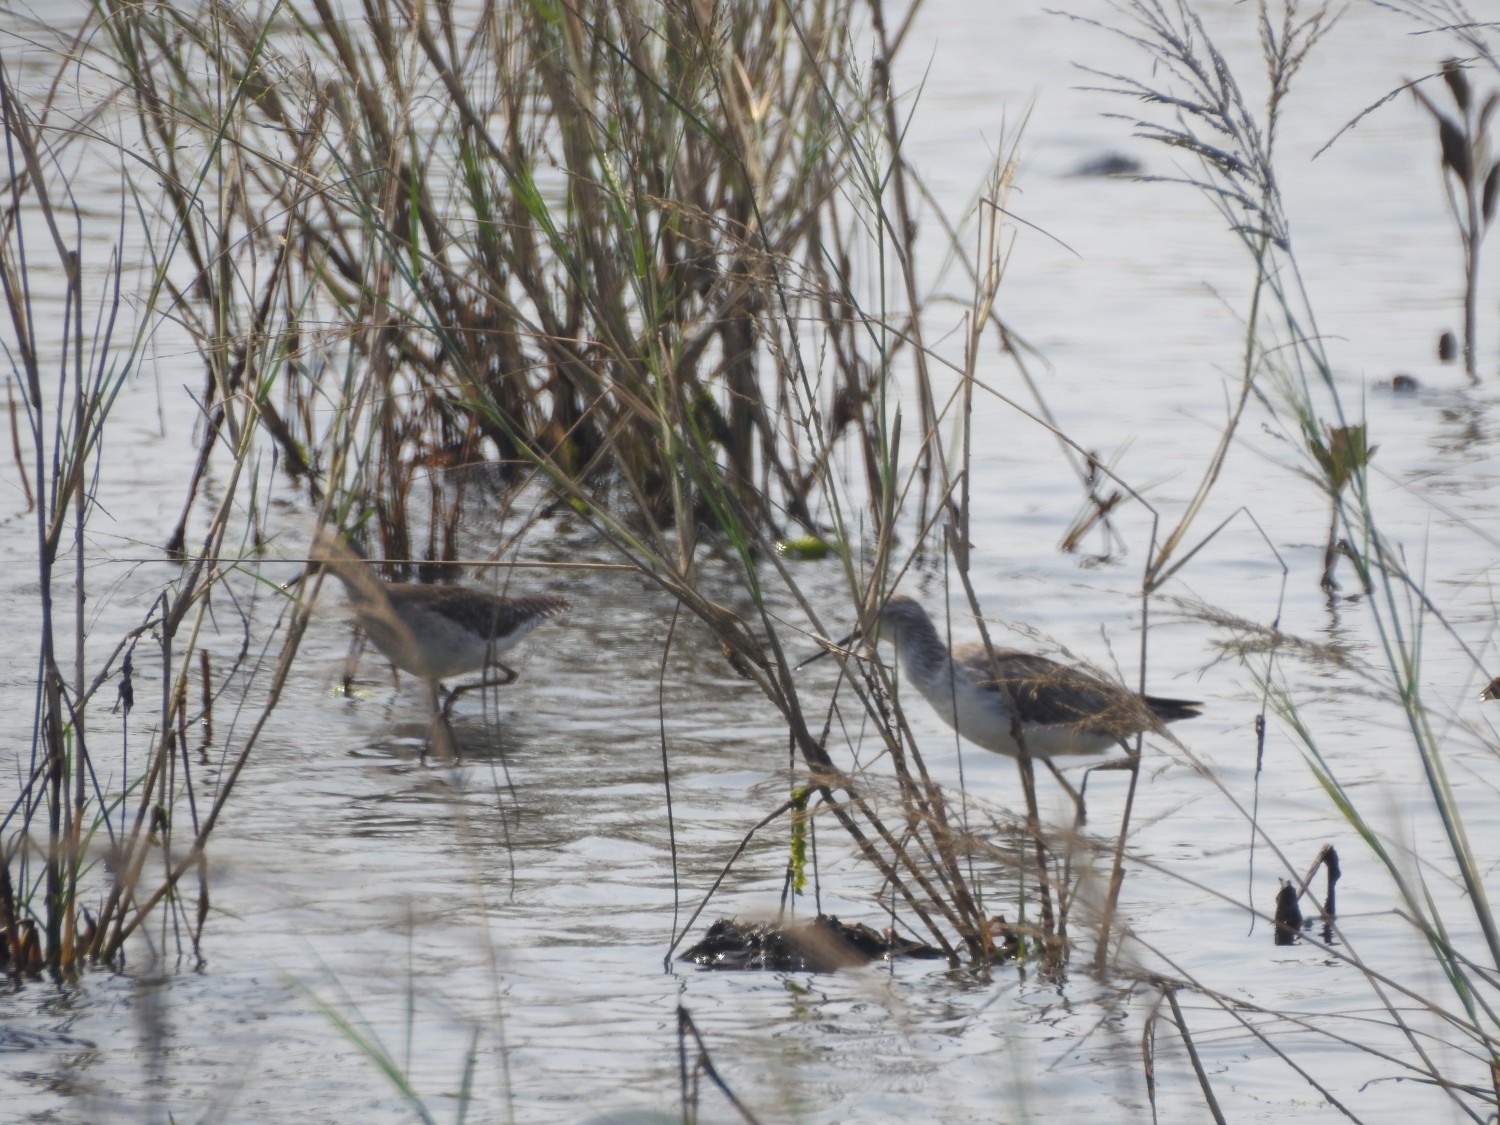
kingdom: Animalia
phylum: Chordata
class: Aves
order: Charadriiformes
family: Scolopacidae
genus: Tringa
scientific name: Tringa stagnatilis
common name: Marsh sandpiper
